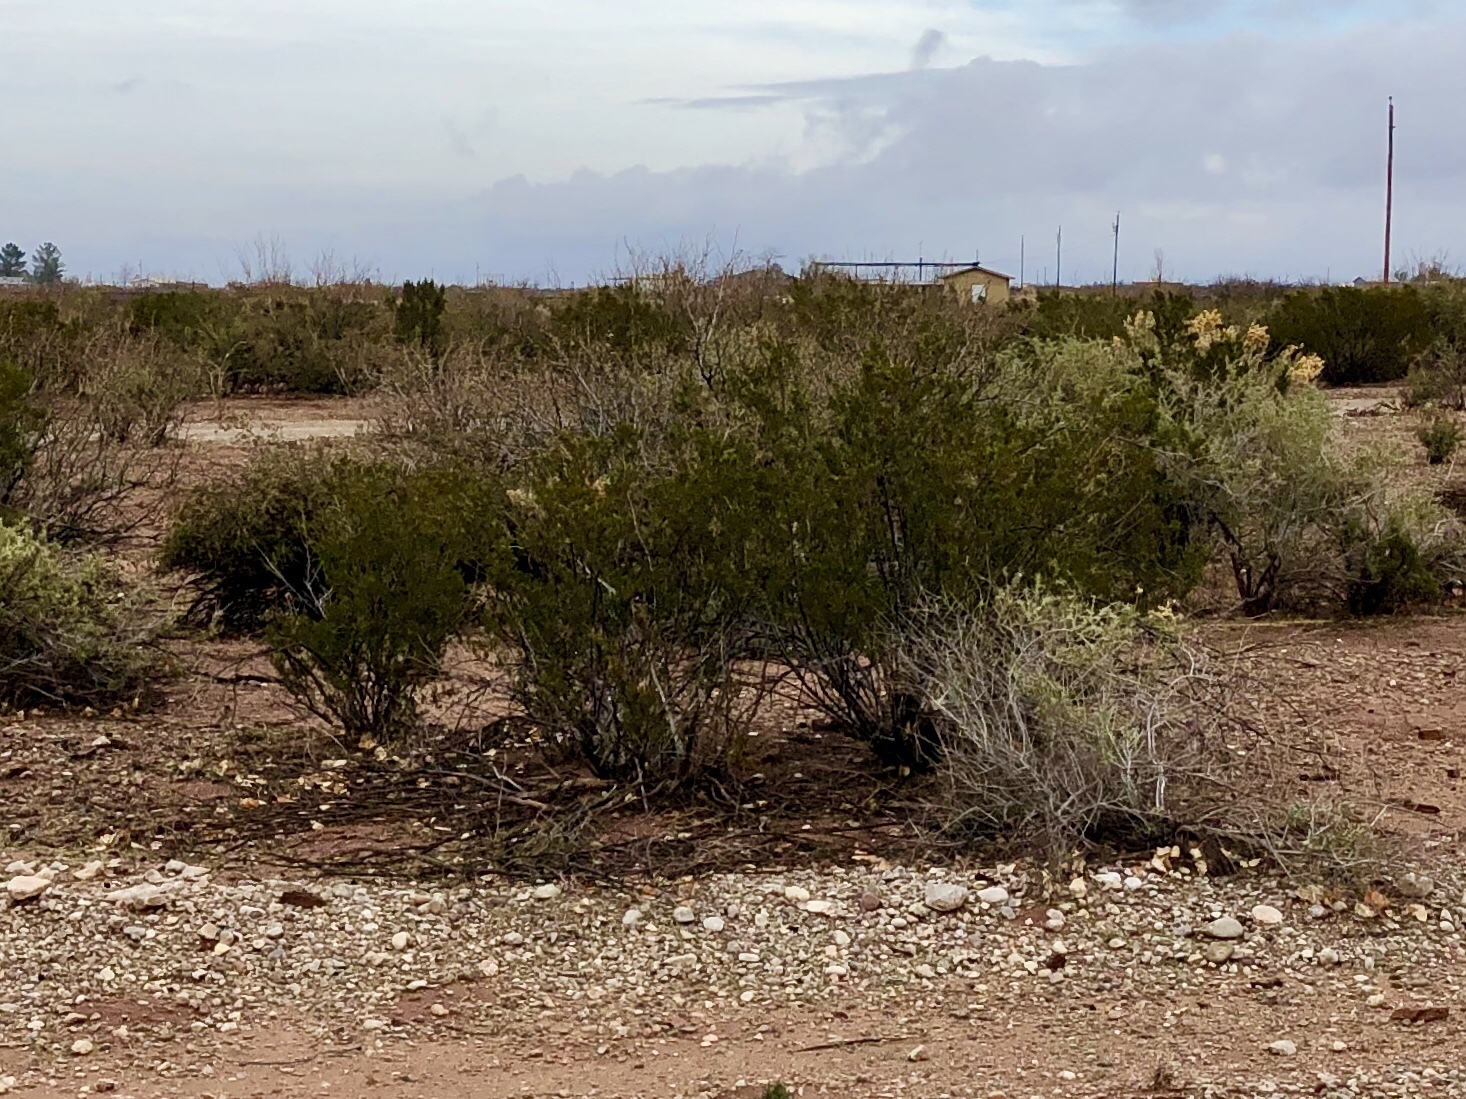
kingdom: Plantae
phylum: Tracheophyta
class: Magnoliopsida
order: Zygophyllales
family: Zygophyllaceae
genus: Larrea
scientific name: Larrea tridentata
